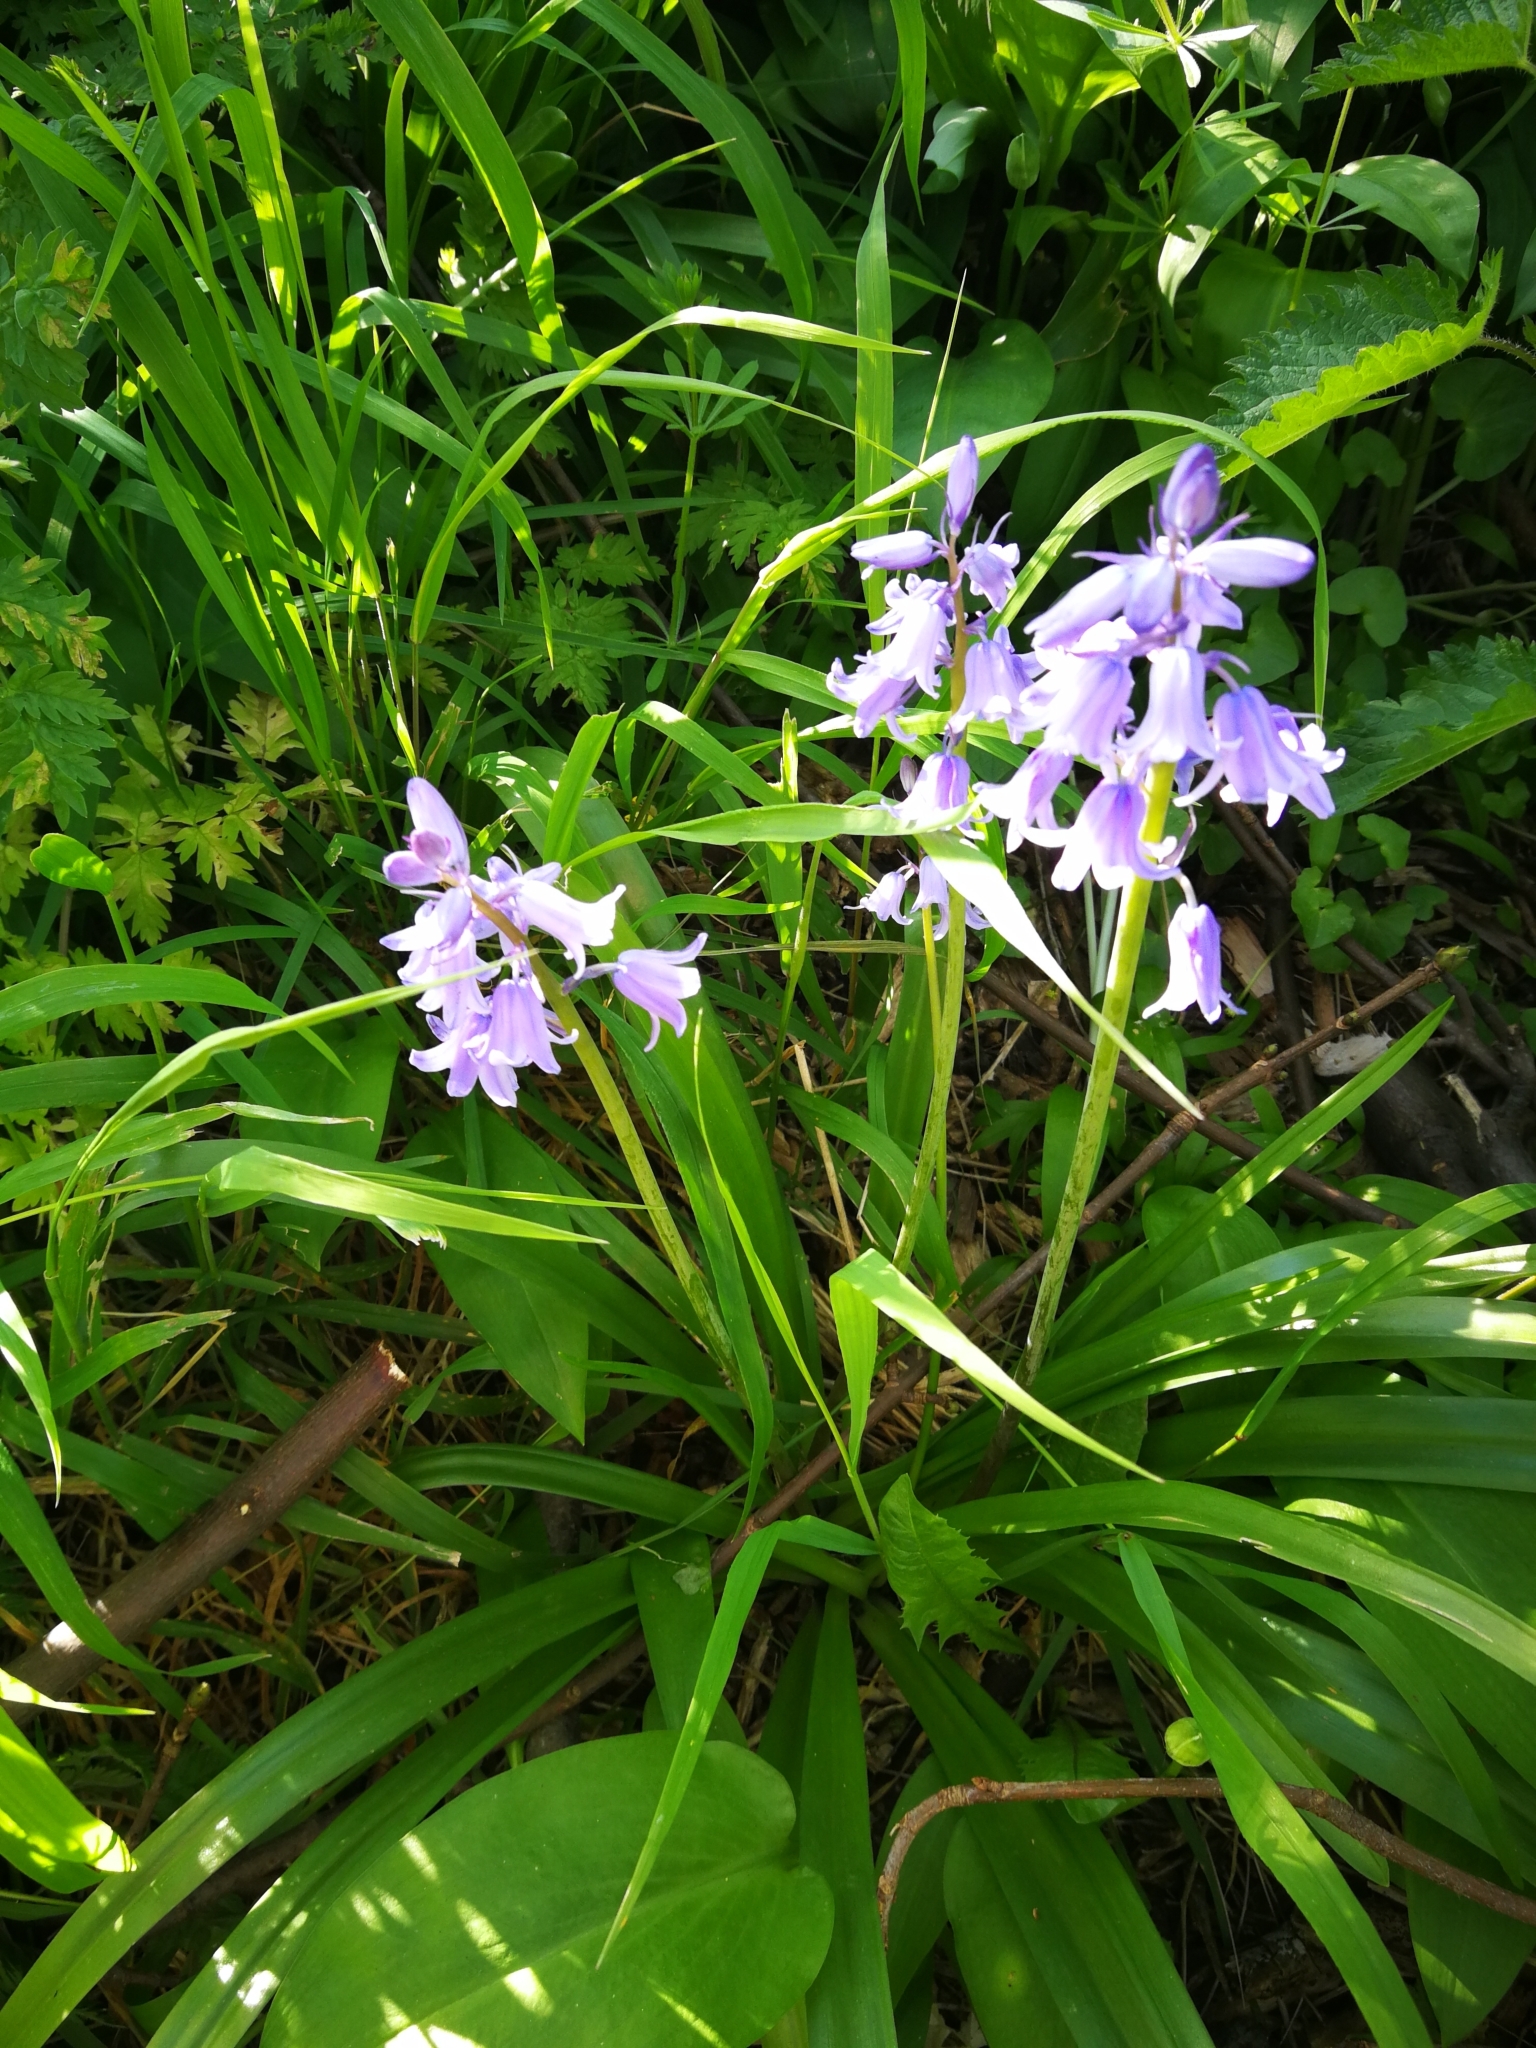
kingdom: Plantae
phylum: Tracheophyta
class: Liliopsida
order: Asparagales
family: Asparagaceae
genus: Hyacinthoides
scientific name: Hyacinthoides hispanica
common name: Spanish bluebell
